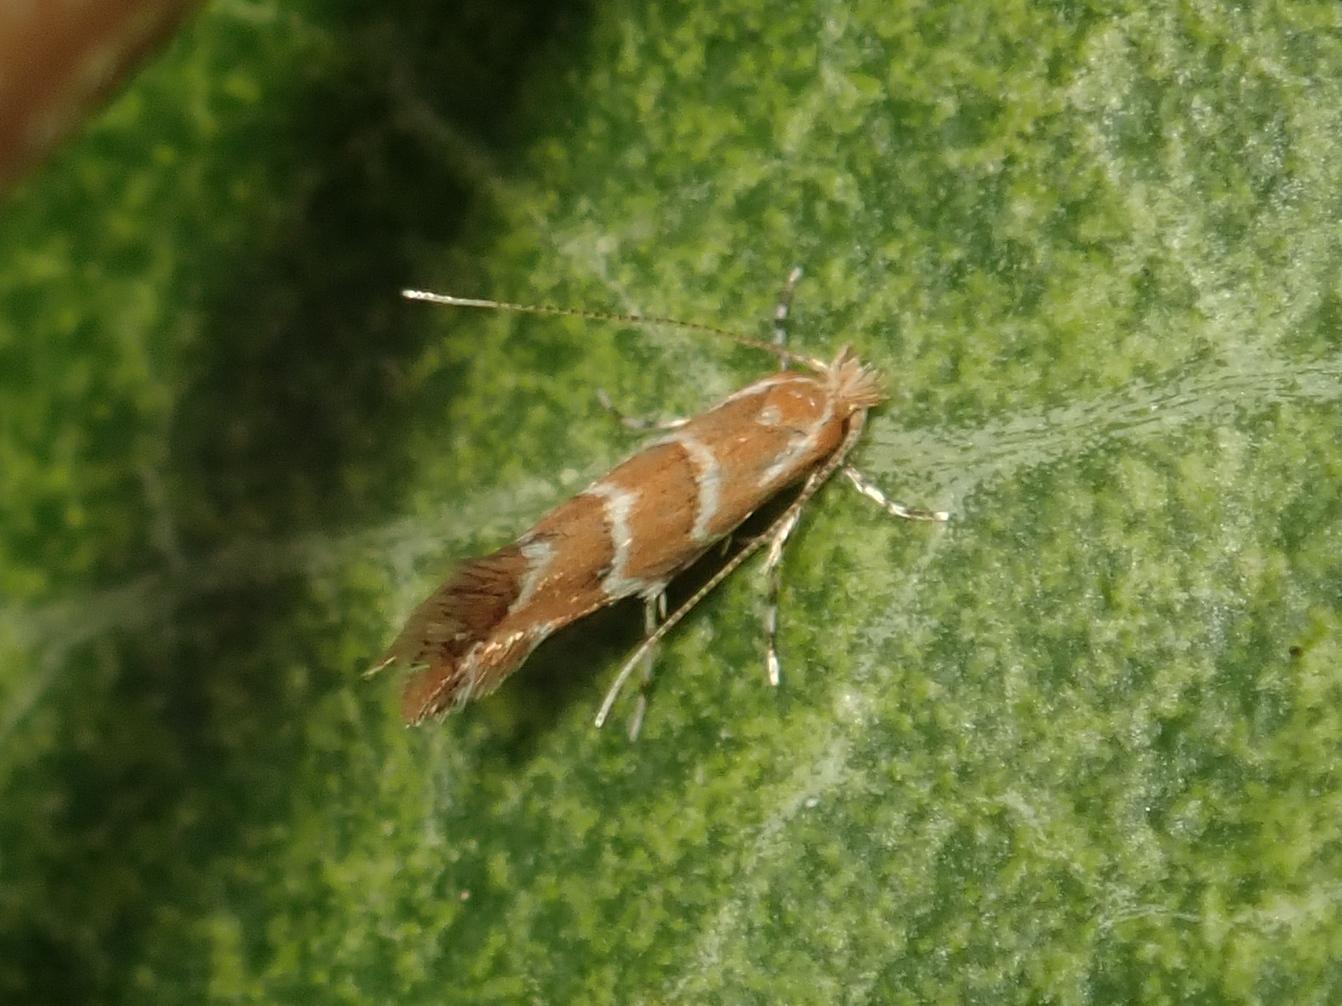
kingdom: Animalia
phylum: Arthropoda
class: Insecta
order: Lepidoptera
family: Gracillariidae
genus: Cameraria
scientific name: Cameraria ohridella
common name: Horse-chestnut leaf-miner
